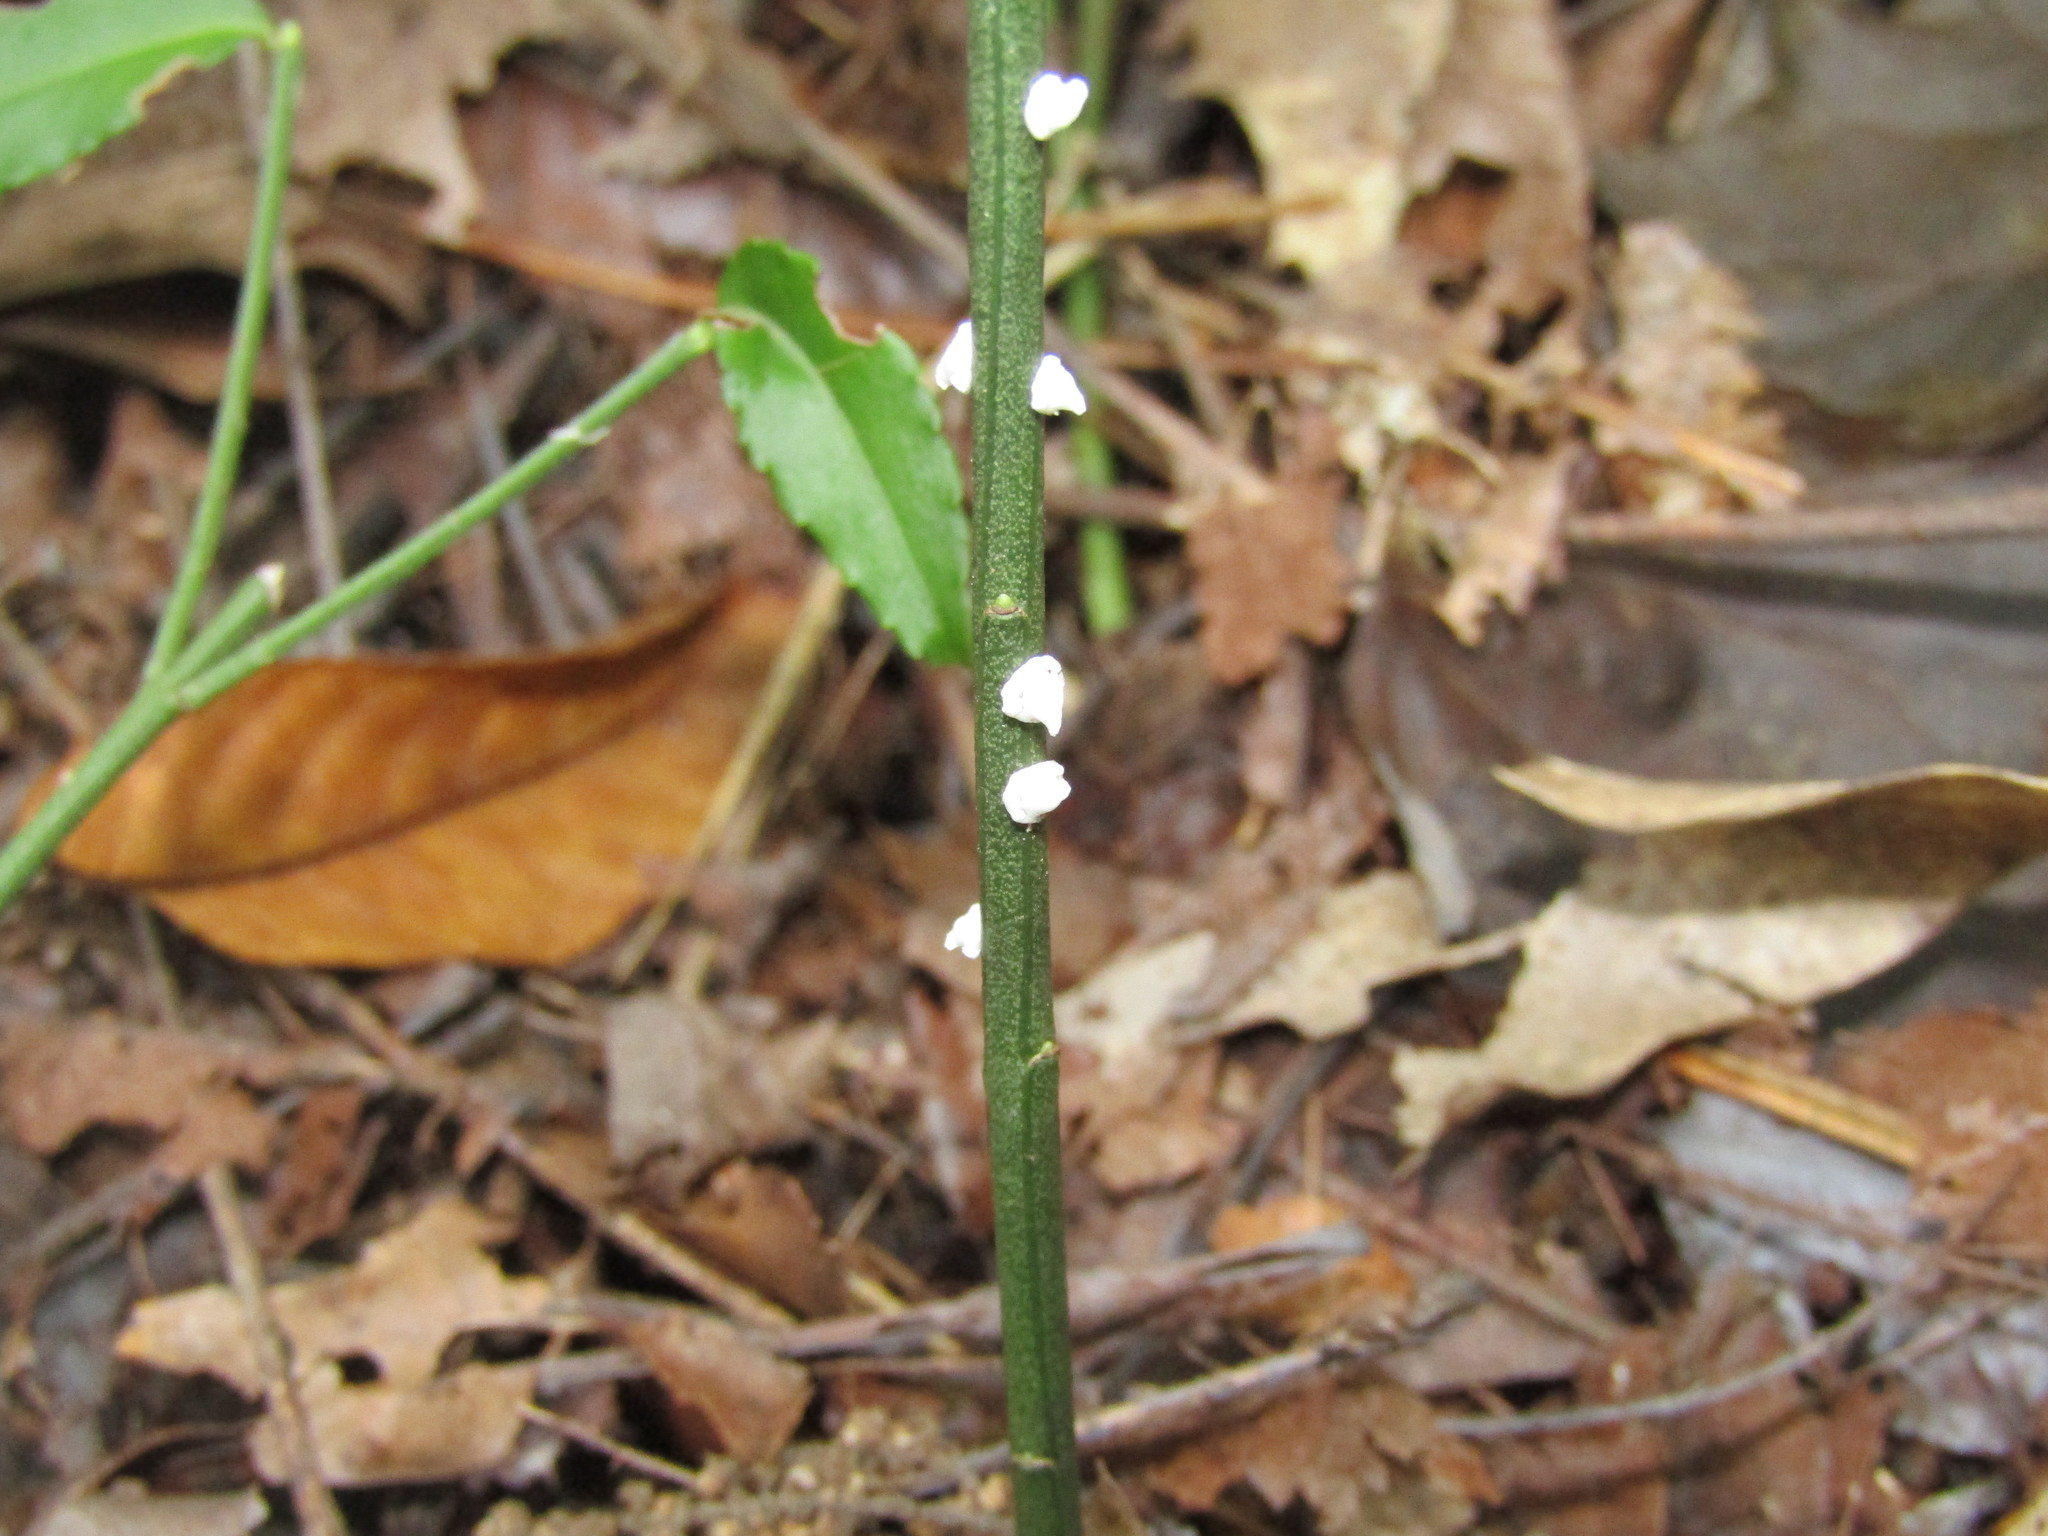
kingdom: Animalia
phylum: Arthropoda
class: Insecta
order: Hemiptera
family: Coccidae
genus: Ceroplastes
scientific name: Ceroplastes ceriferus
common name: Indian wax scale
